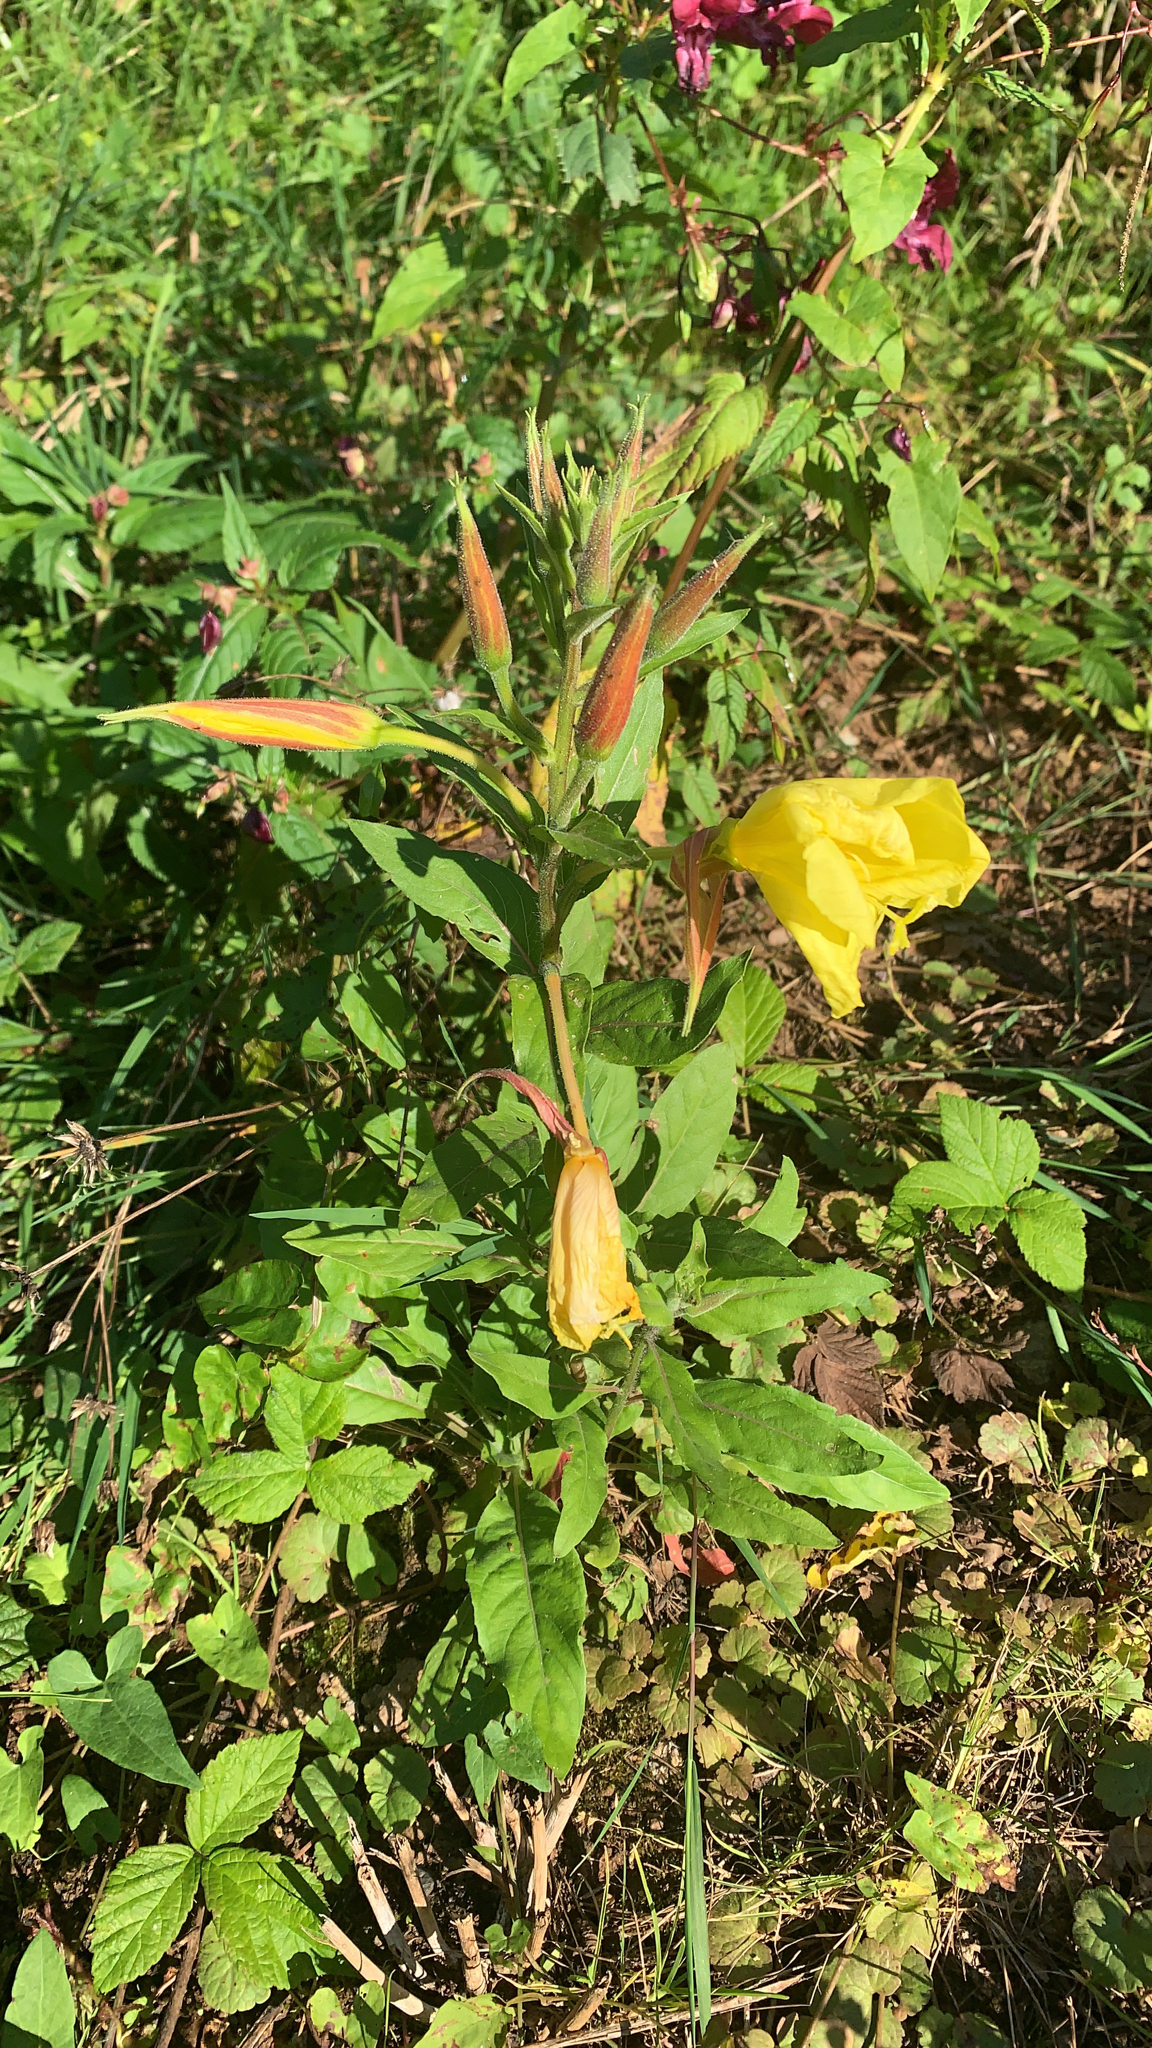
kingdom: Plantae
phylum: Tracheophyta
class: Magnoliopsida
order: Myrtales
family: Onagraceae
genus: Oenothera
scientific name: Oenothera glazioviana
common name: Large-flowered evening-primrose
